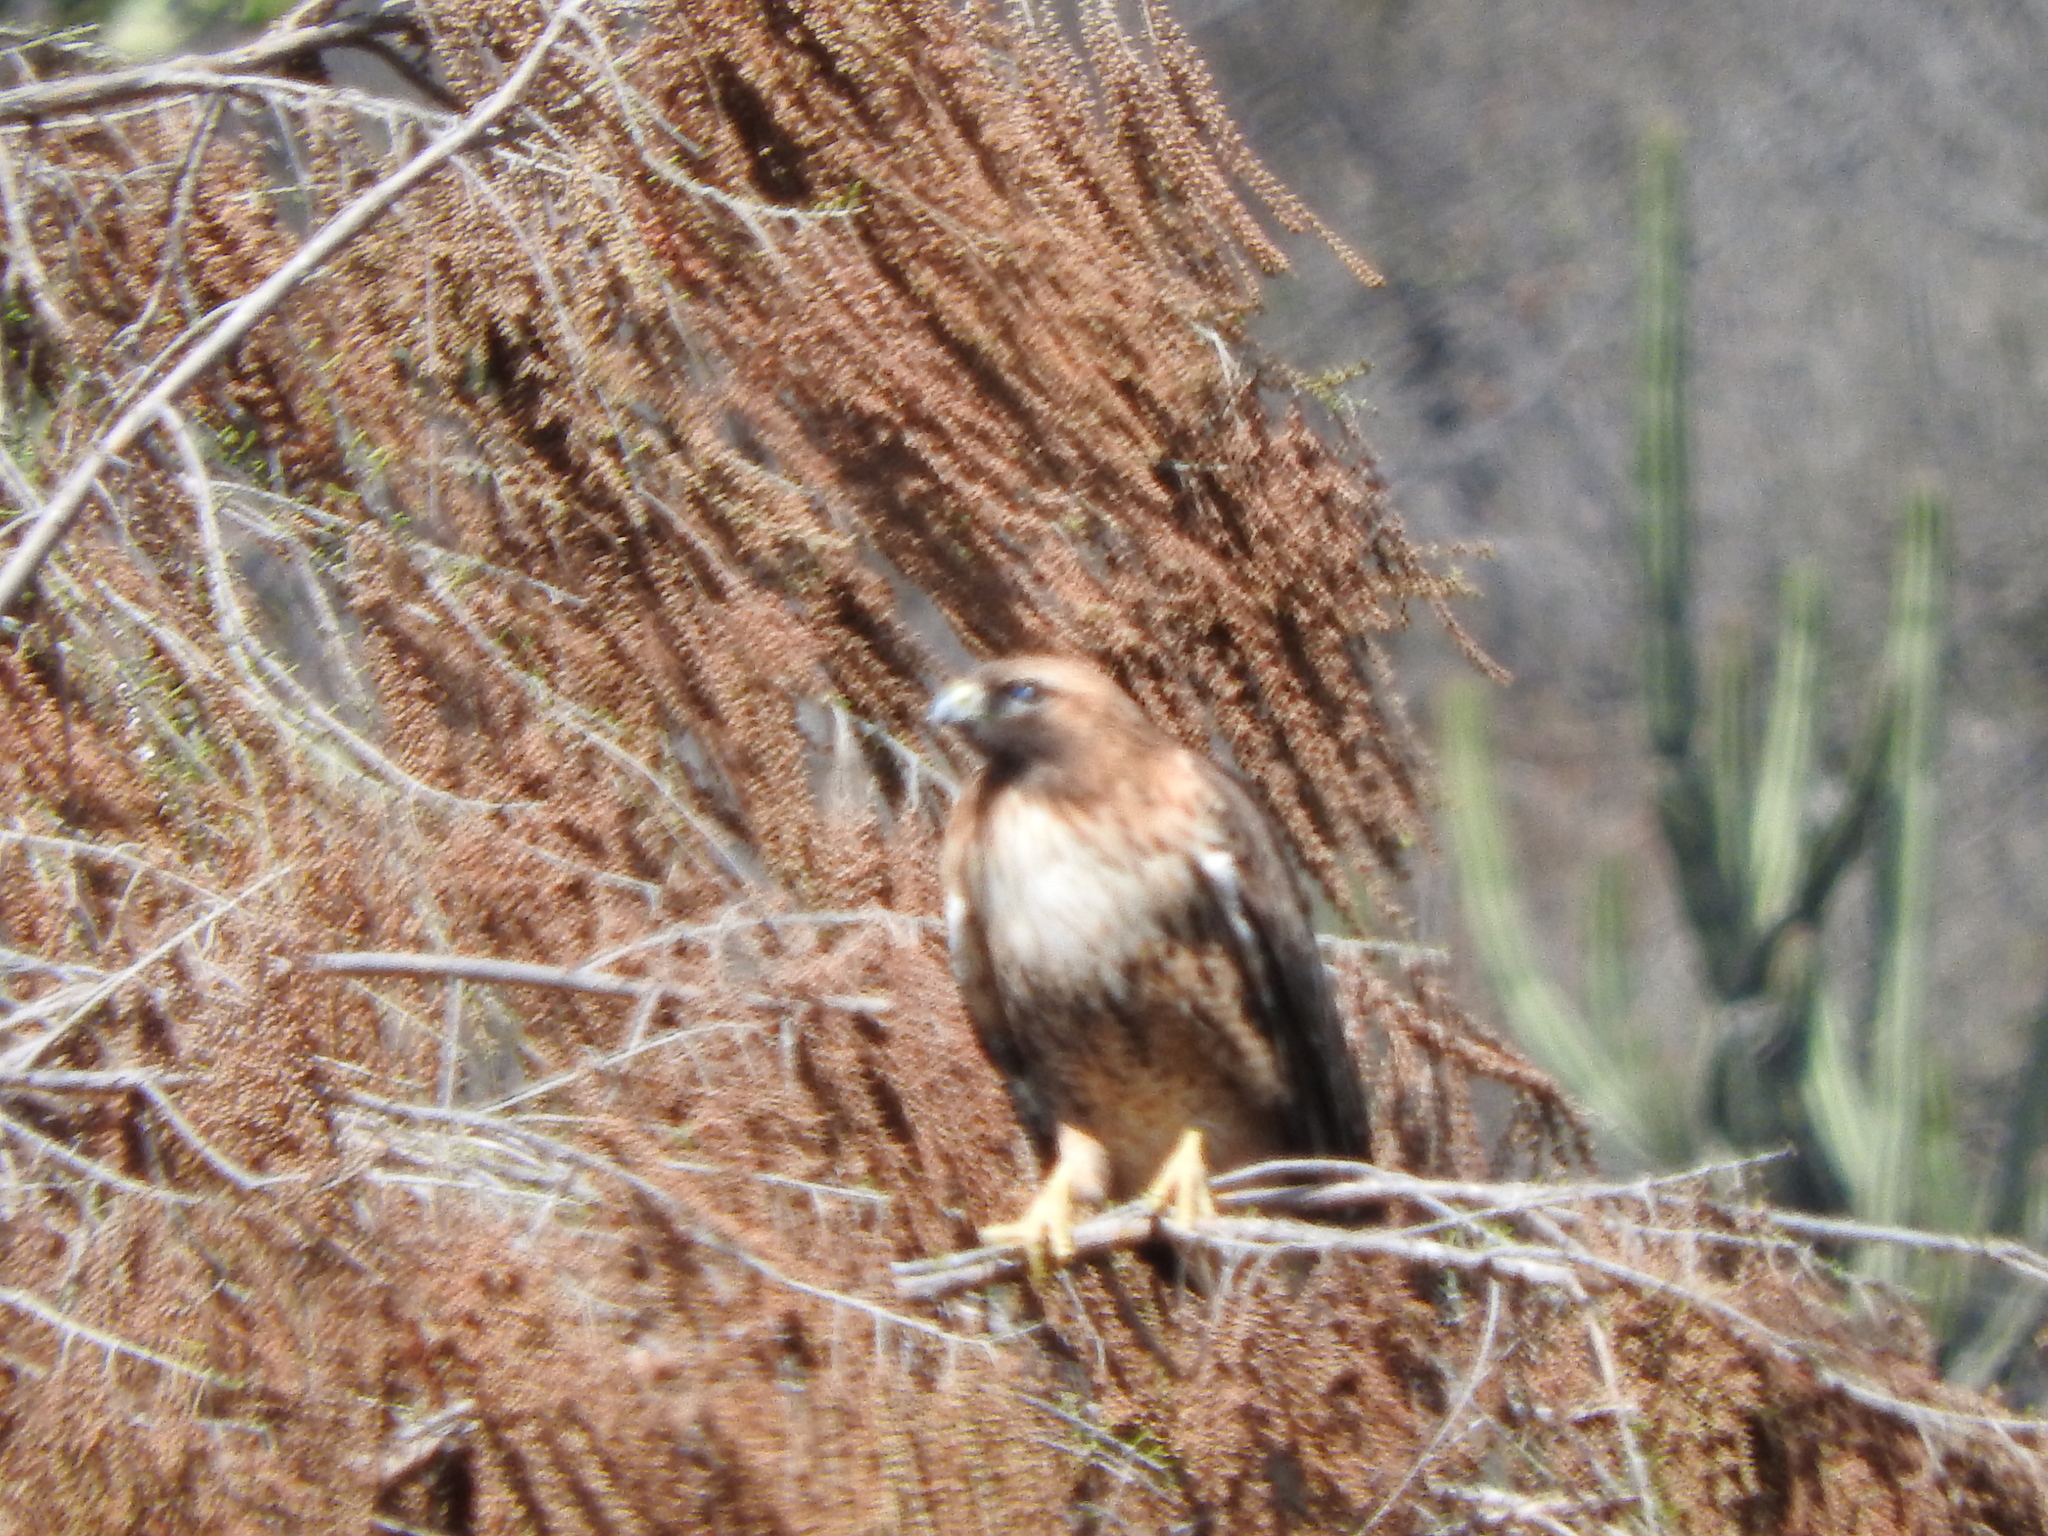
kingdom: Animalia
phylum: Chordata
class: Aves
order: Accipitriformes
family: Accipitridae
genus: Buteo
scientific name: Buteo jamaicensis
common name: Red-tailed hawk
